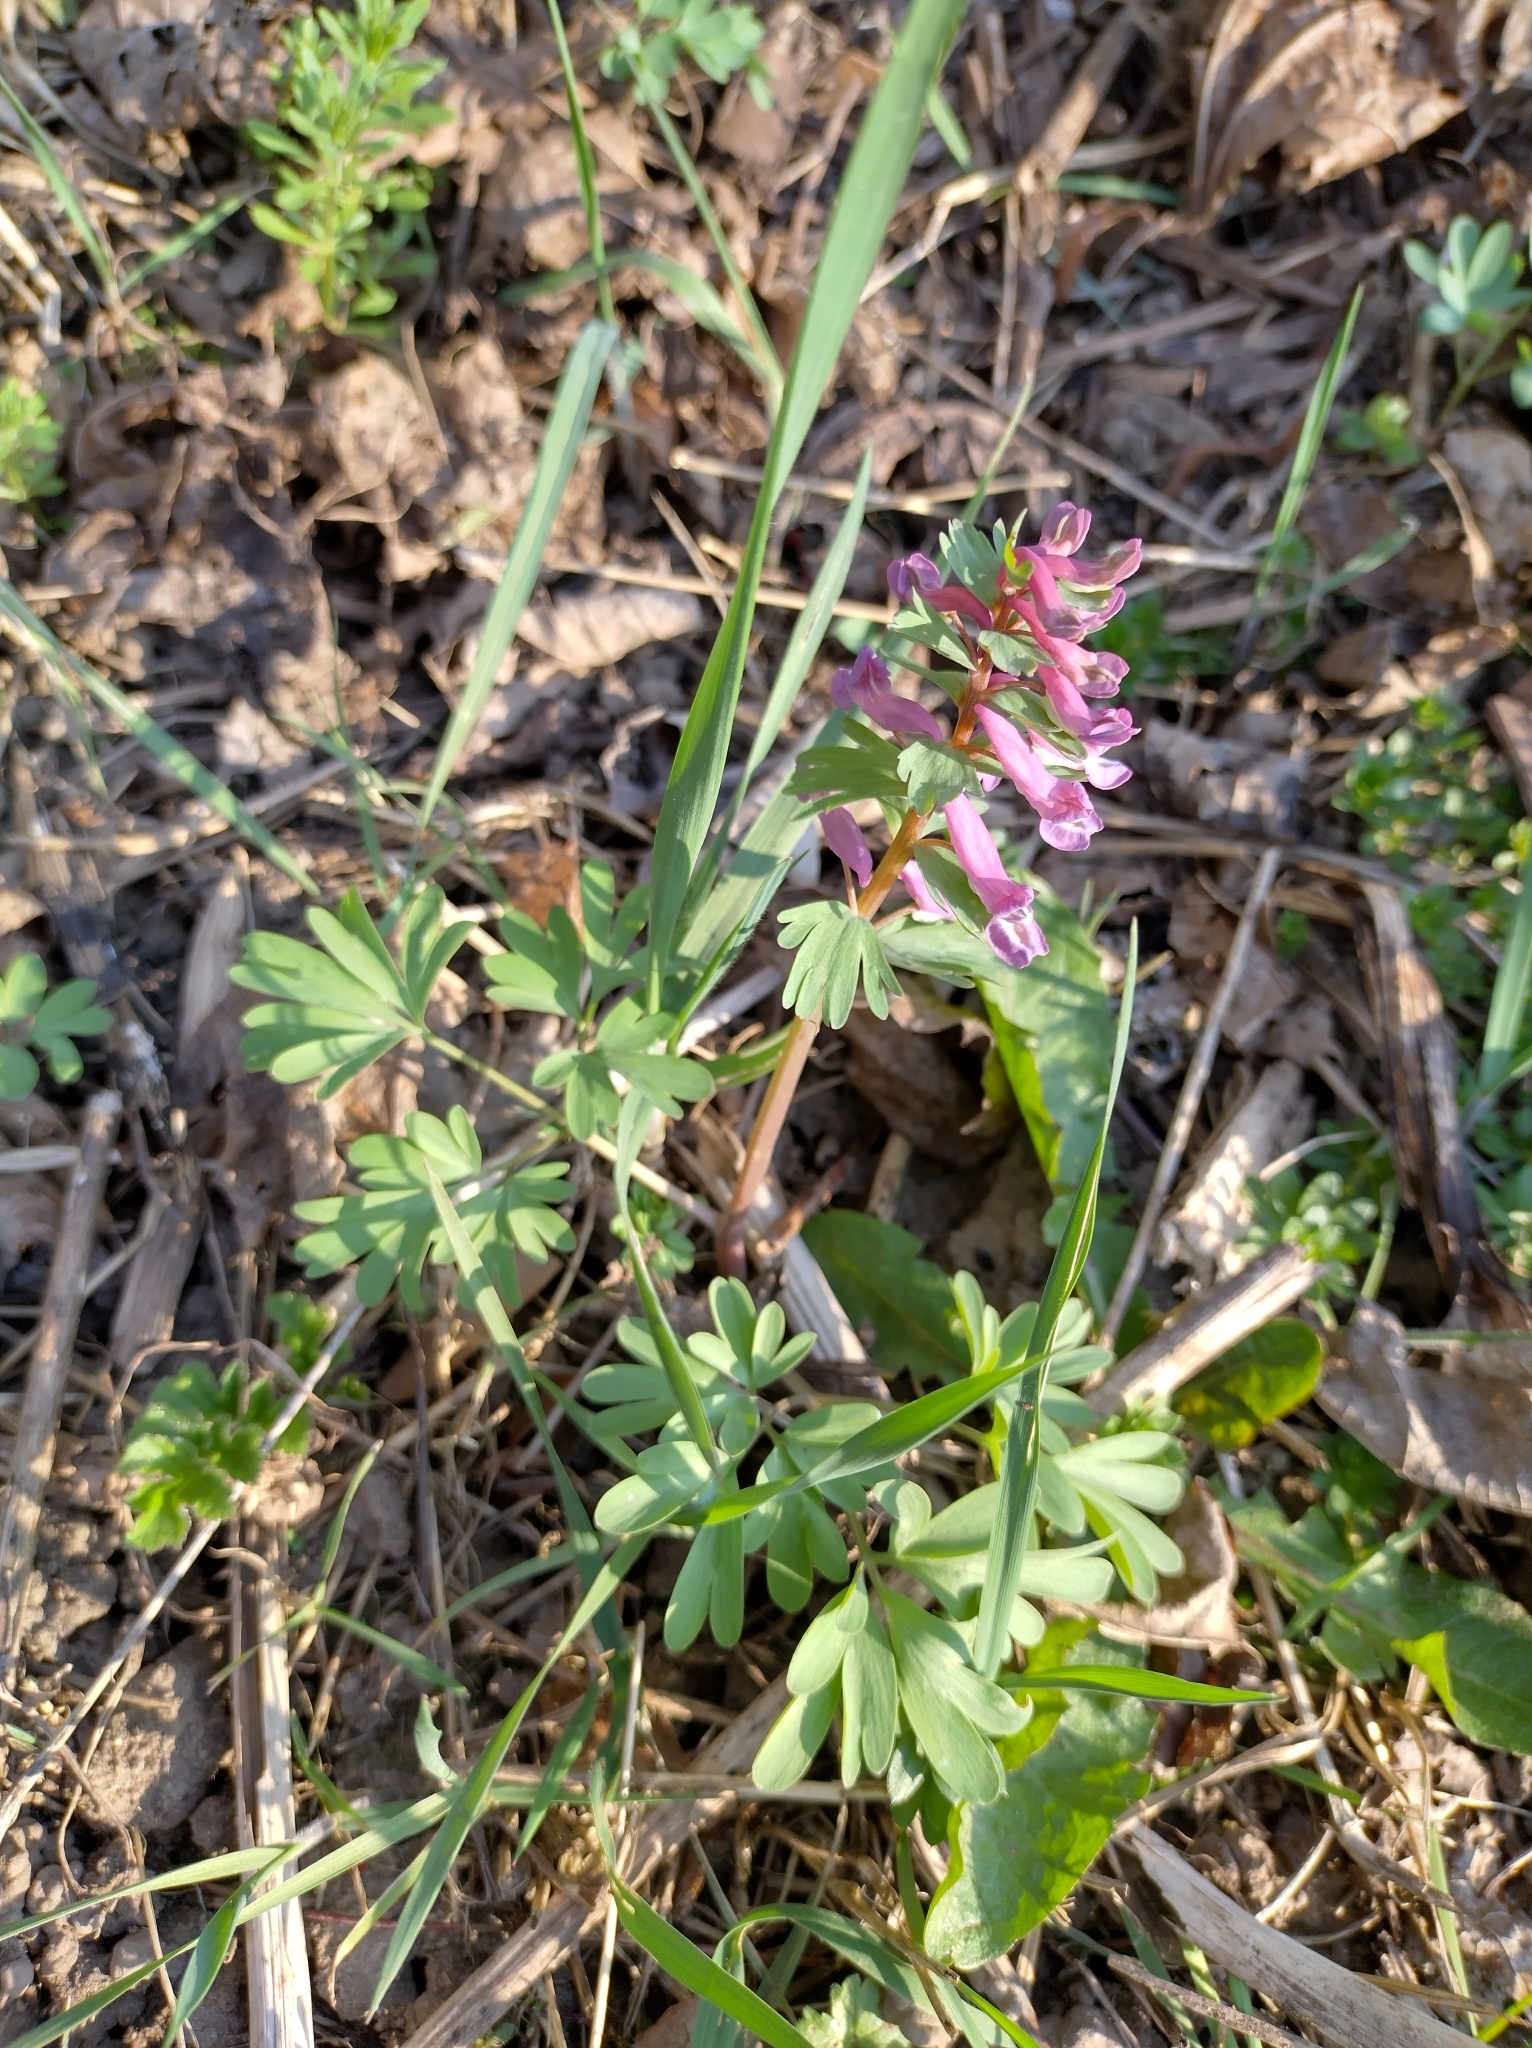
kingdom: Plantae
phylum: Tracheophyta
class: Magnoliopsida
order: Ranunculales
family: Papaveraceae
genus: Corydalis
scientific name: Corydalis solida
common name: Bird-in-a-bush
